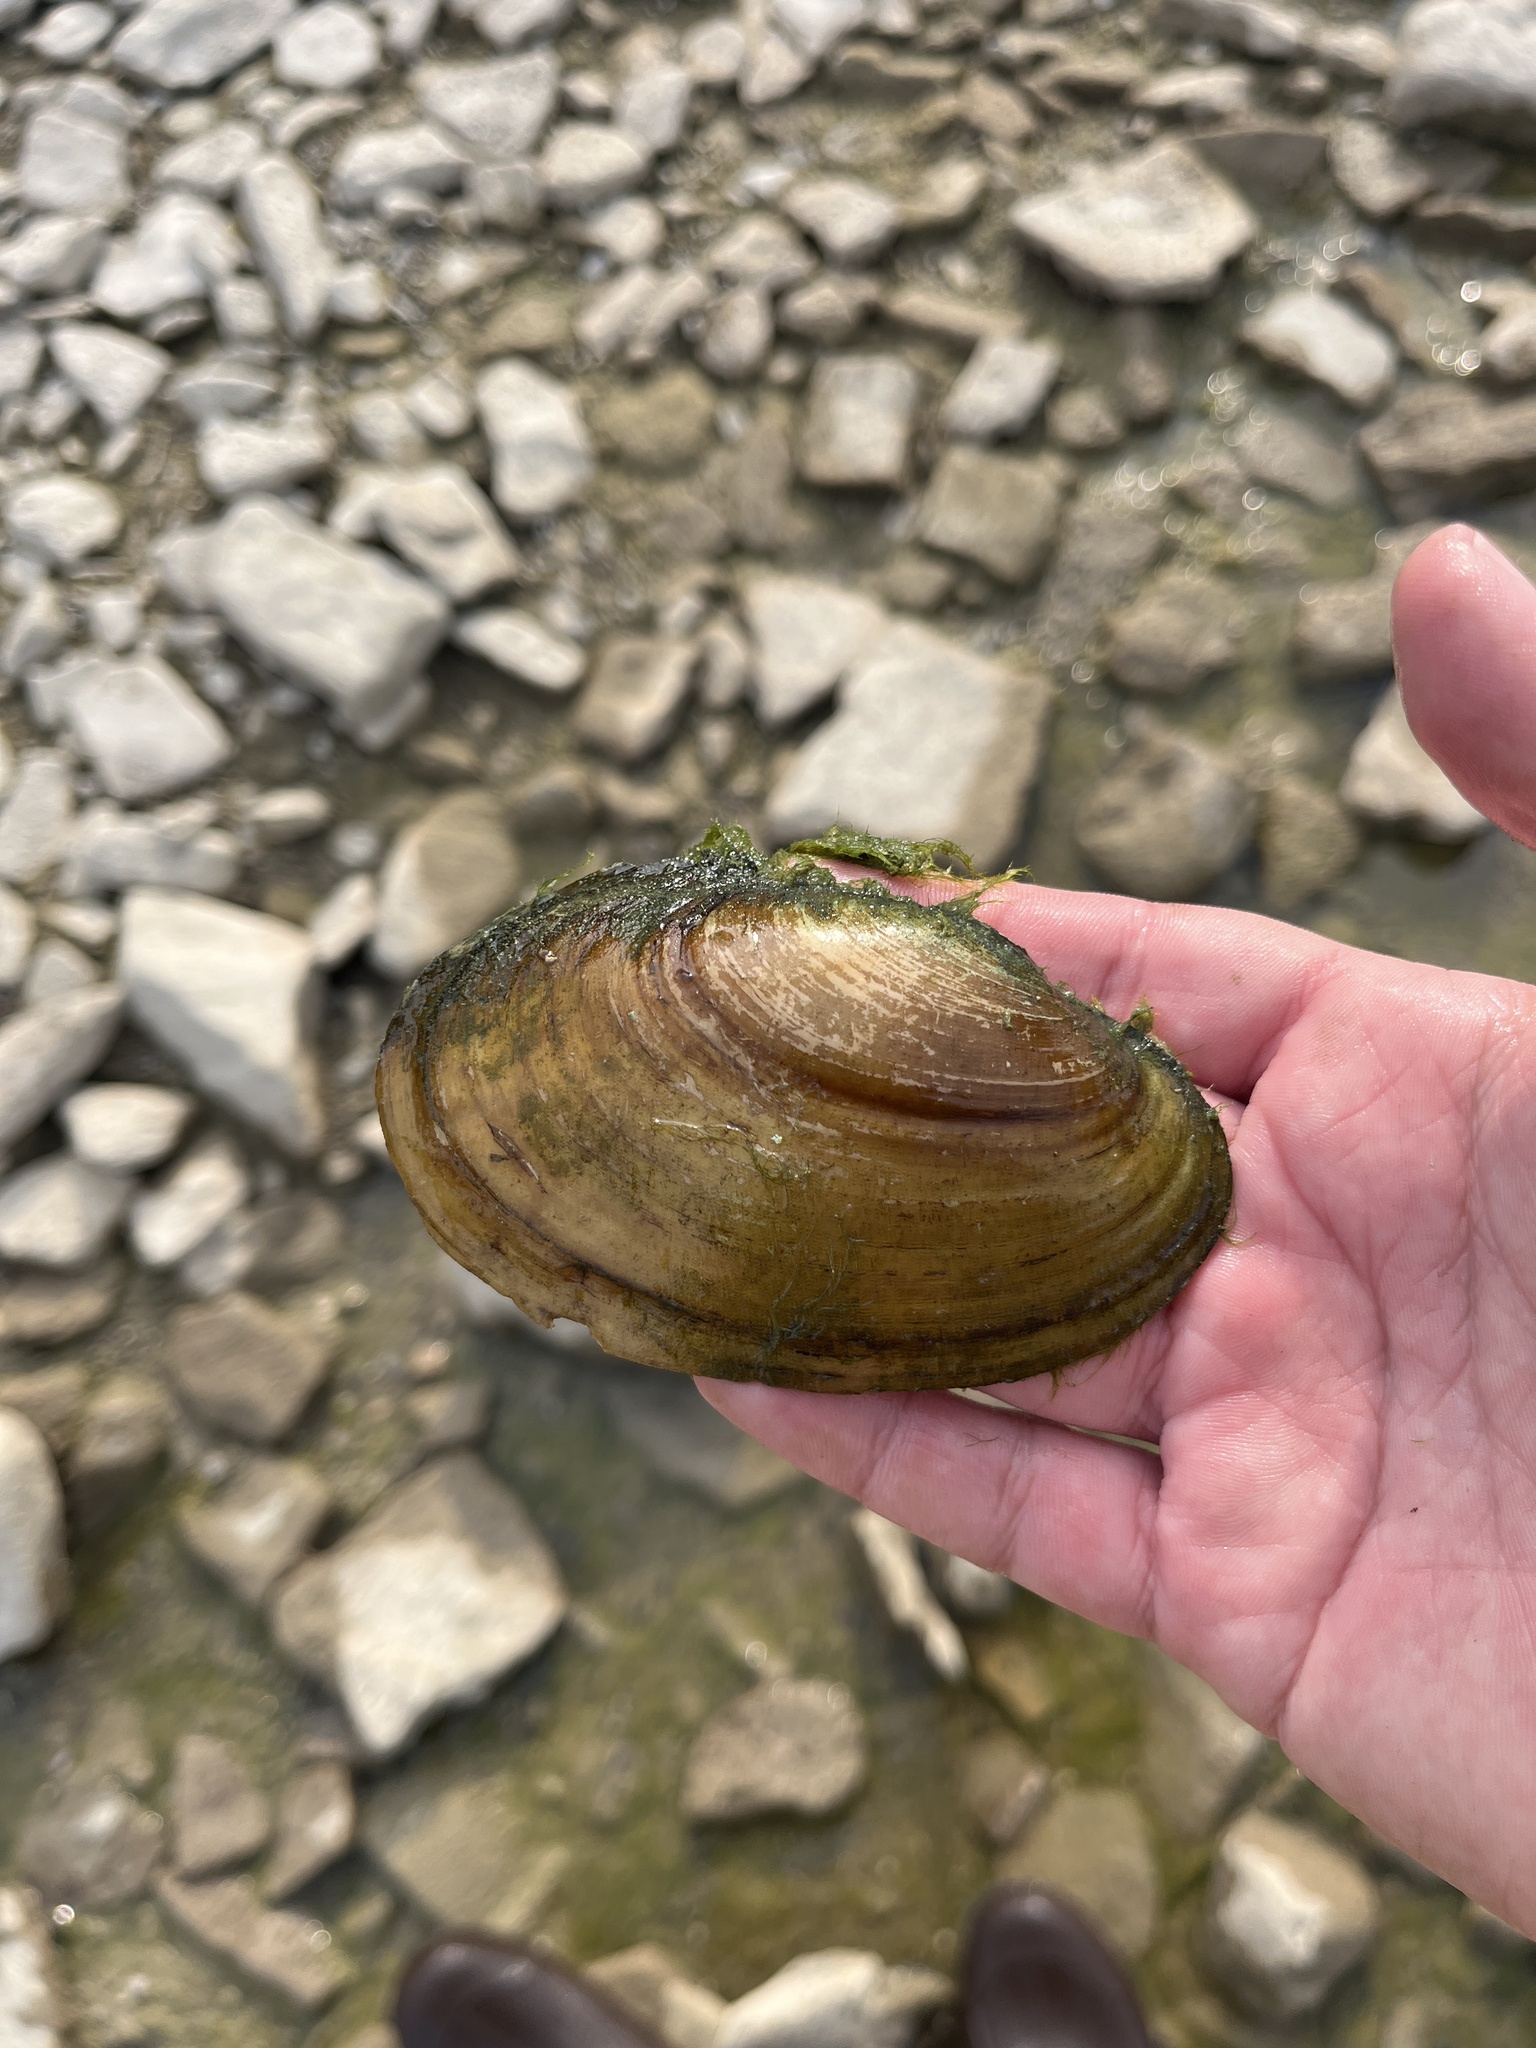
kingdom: Animalia
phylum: Mollusca
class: Bivalvia
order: Unionida
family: Unionidae
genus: Potamilus
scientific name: Potamilus fragilis
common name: Fragile papershell
